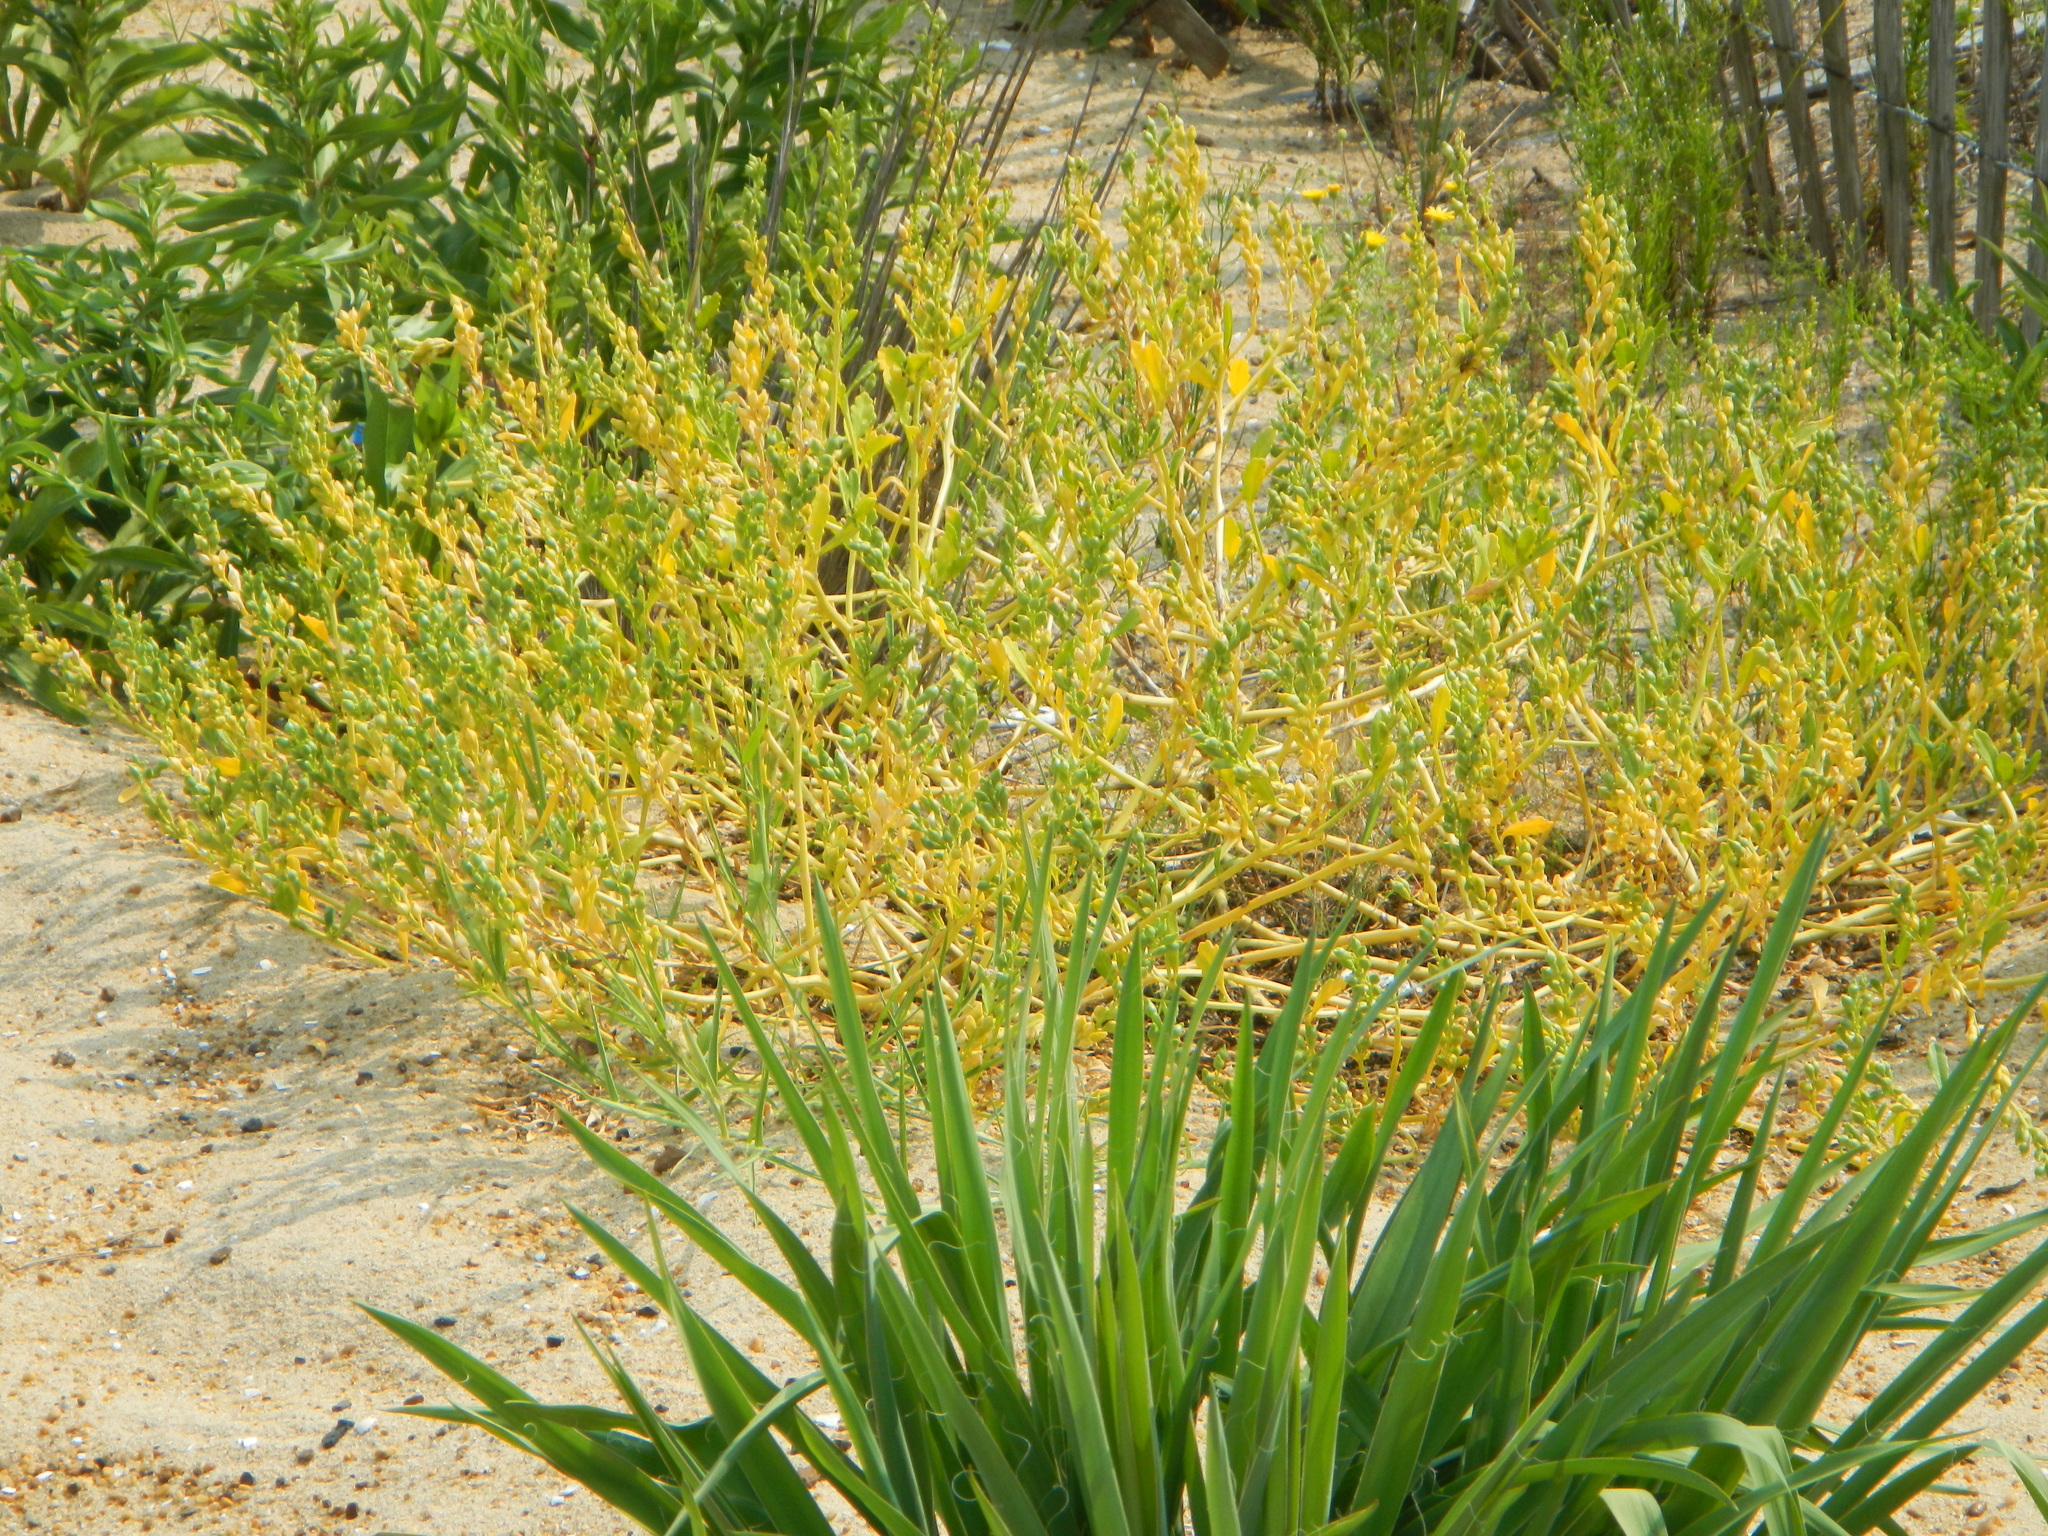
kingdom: Plantae
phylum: Tracheophyta
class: Magnoliopsida
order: Brassicales
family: Brassicaceae
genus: Cakile
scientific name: Cakile edentula
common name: American sea rocket
